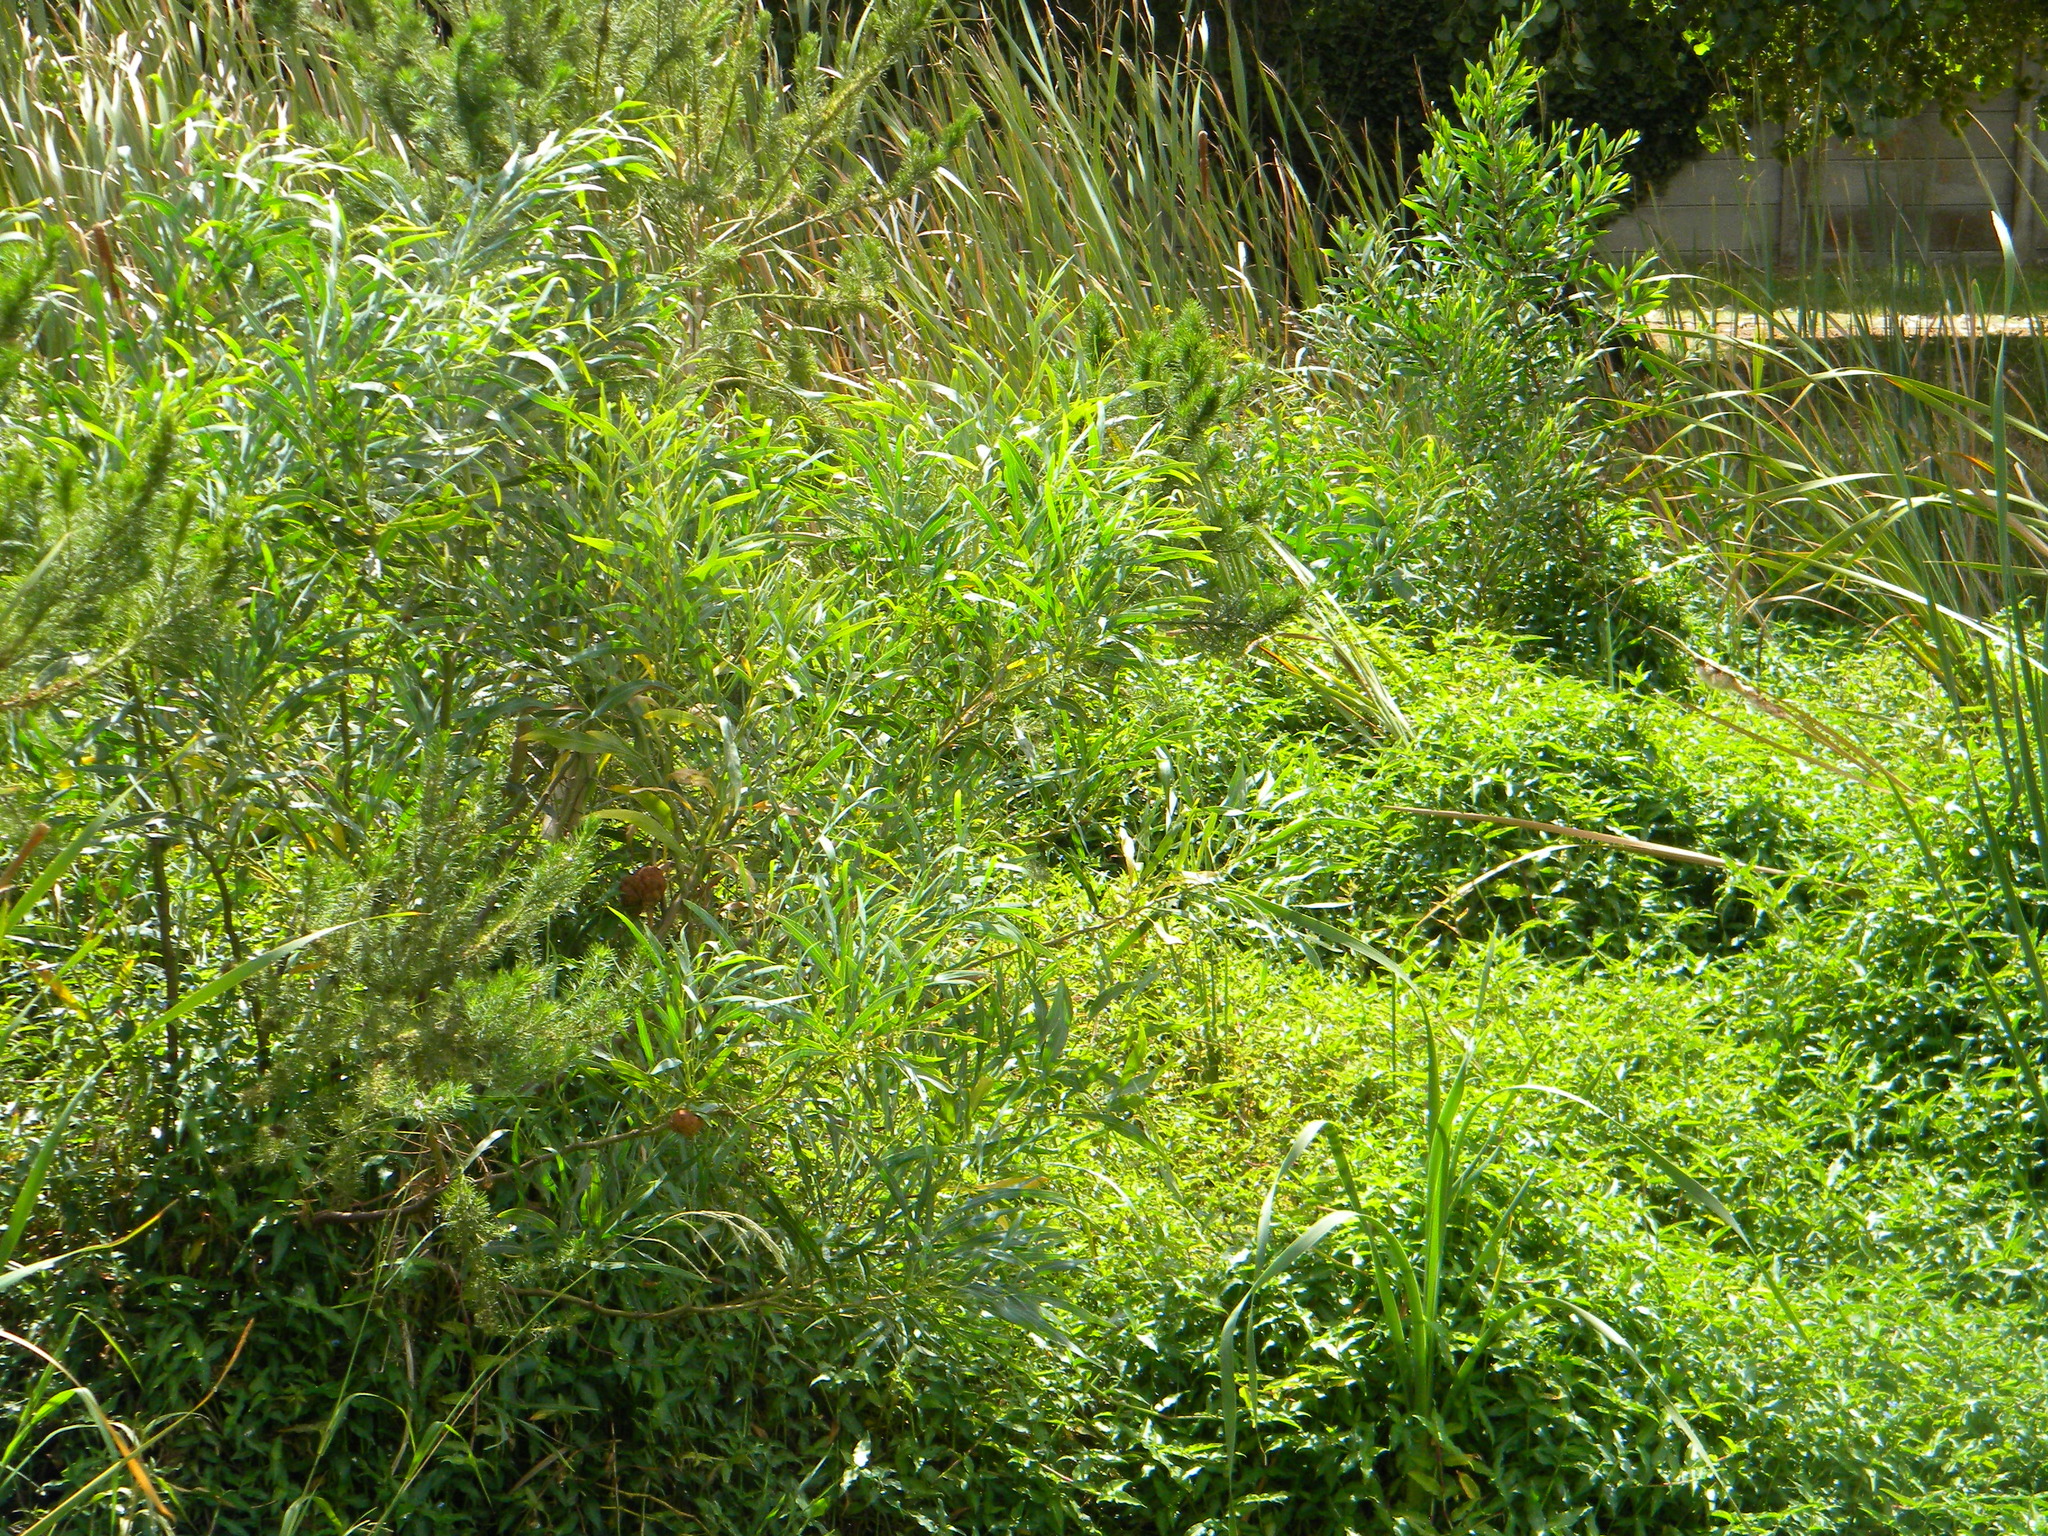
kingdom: Plantae
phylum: Tracheophyta
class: Magnoliopsida
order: Fabales
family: Fabaceae
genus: Acacia
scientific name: Acacia saligna
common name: Orange wattle
